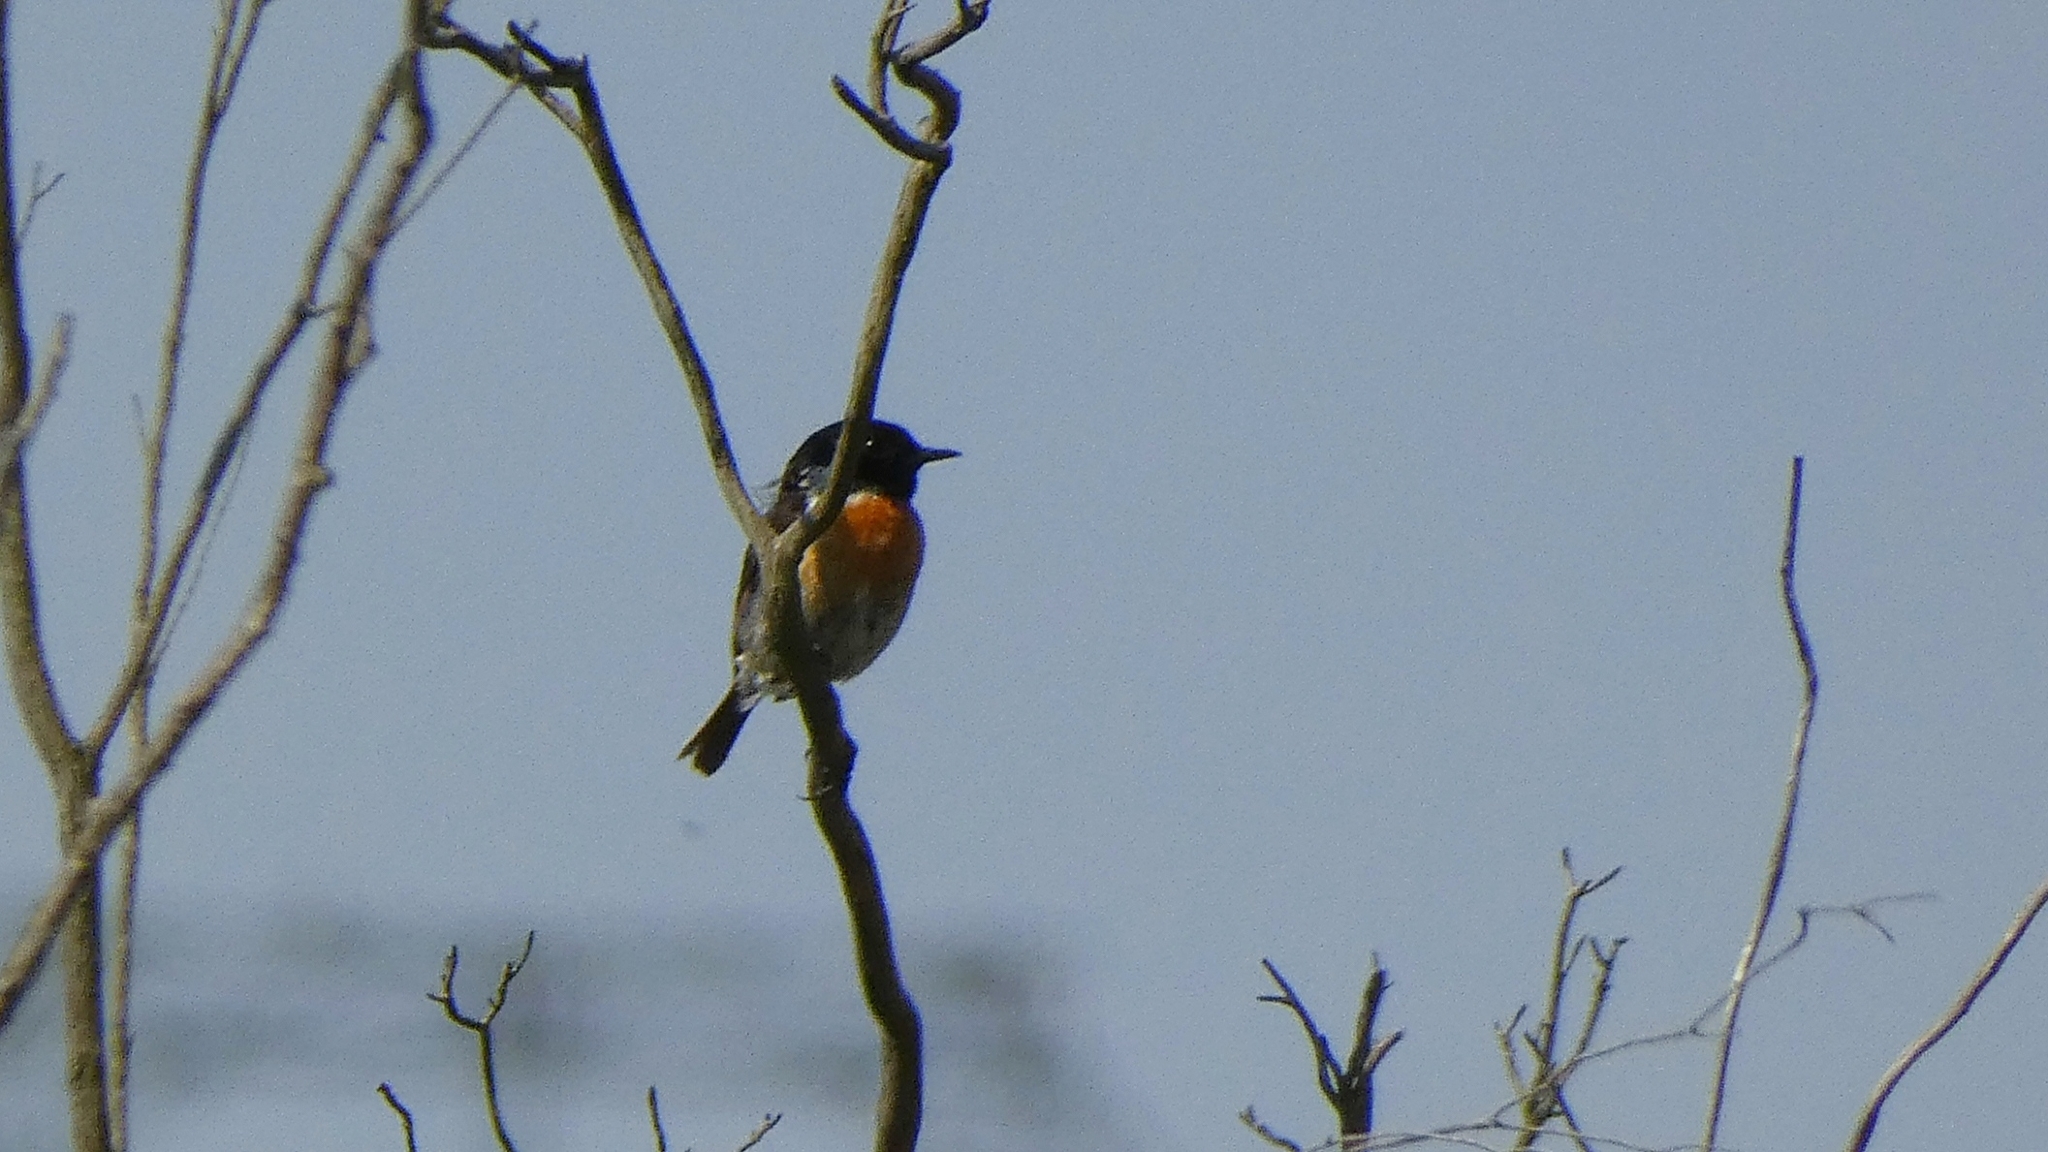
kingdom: Animalia
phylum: Chordata
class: Aves
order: Passeriformes
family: Muscicapidae
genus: Saxicola
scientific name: Saxicola rubicola
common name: European stonechat
